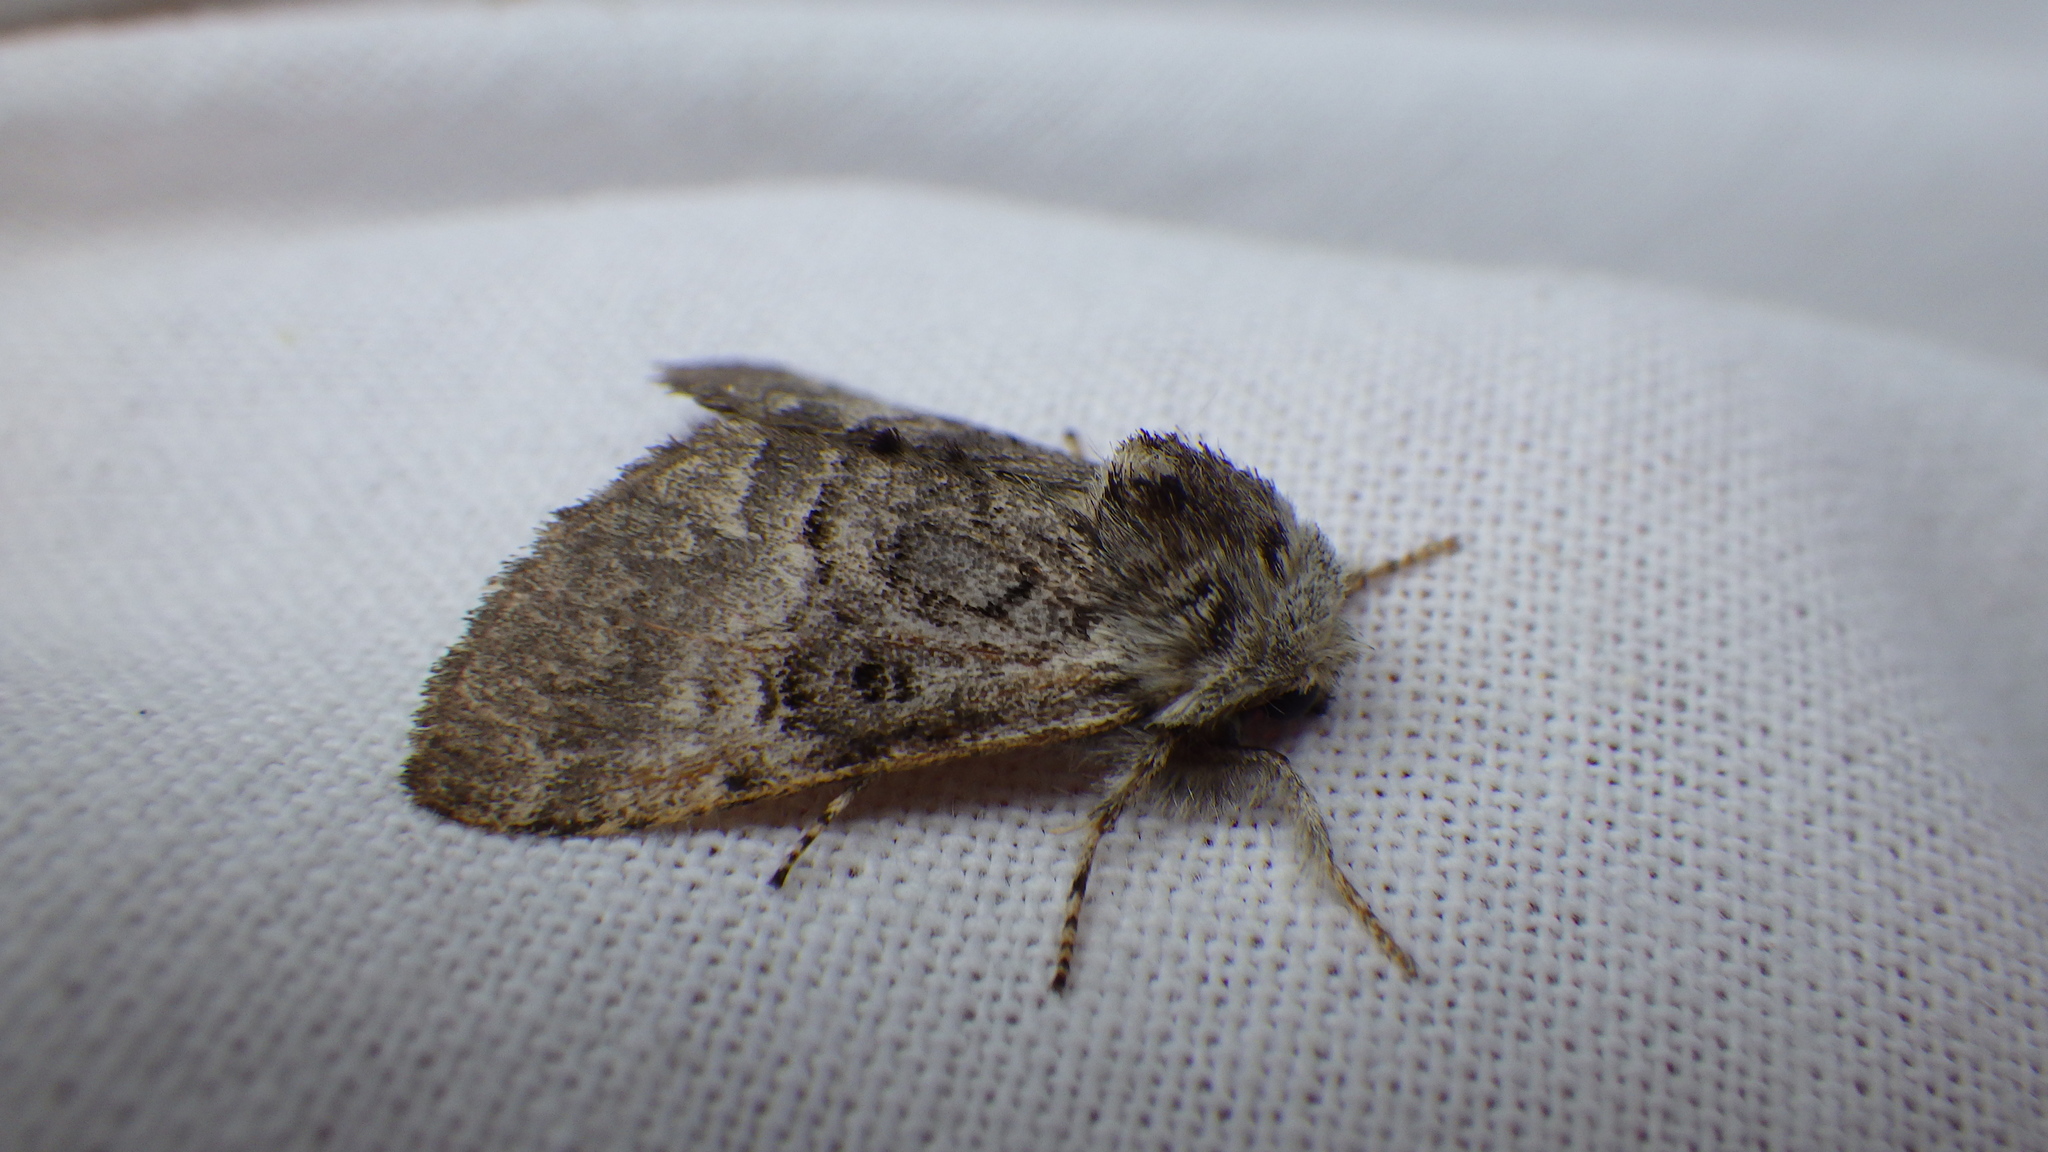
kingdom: Animalia
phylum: Arthropoda
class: Insecta
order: Lepidoptera
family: Noctuidae
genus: Colocasia
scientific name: Colocasia coryli
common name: Nut-tree tussock
